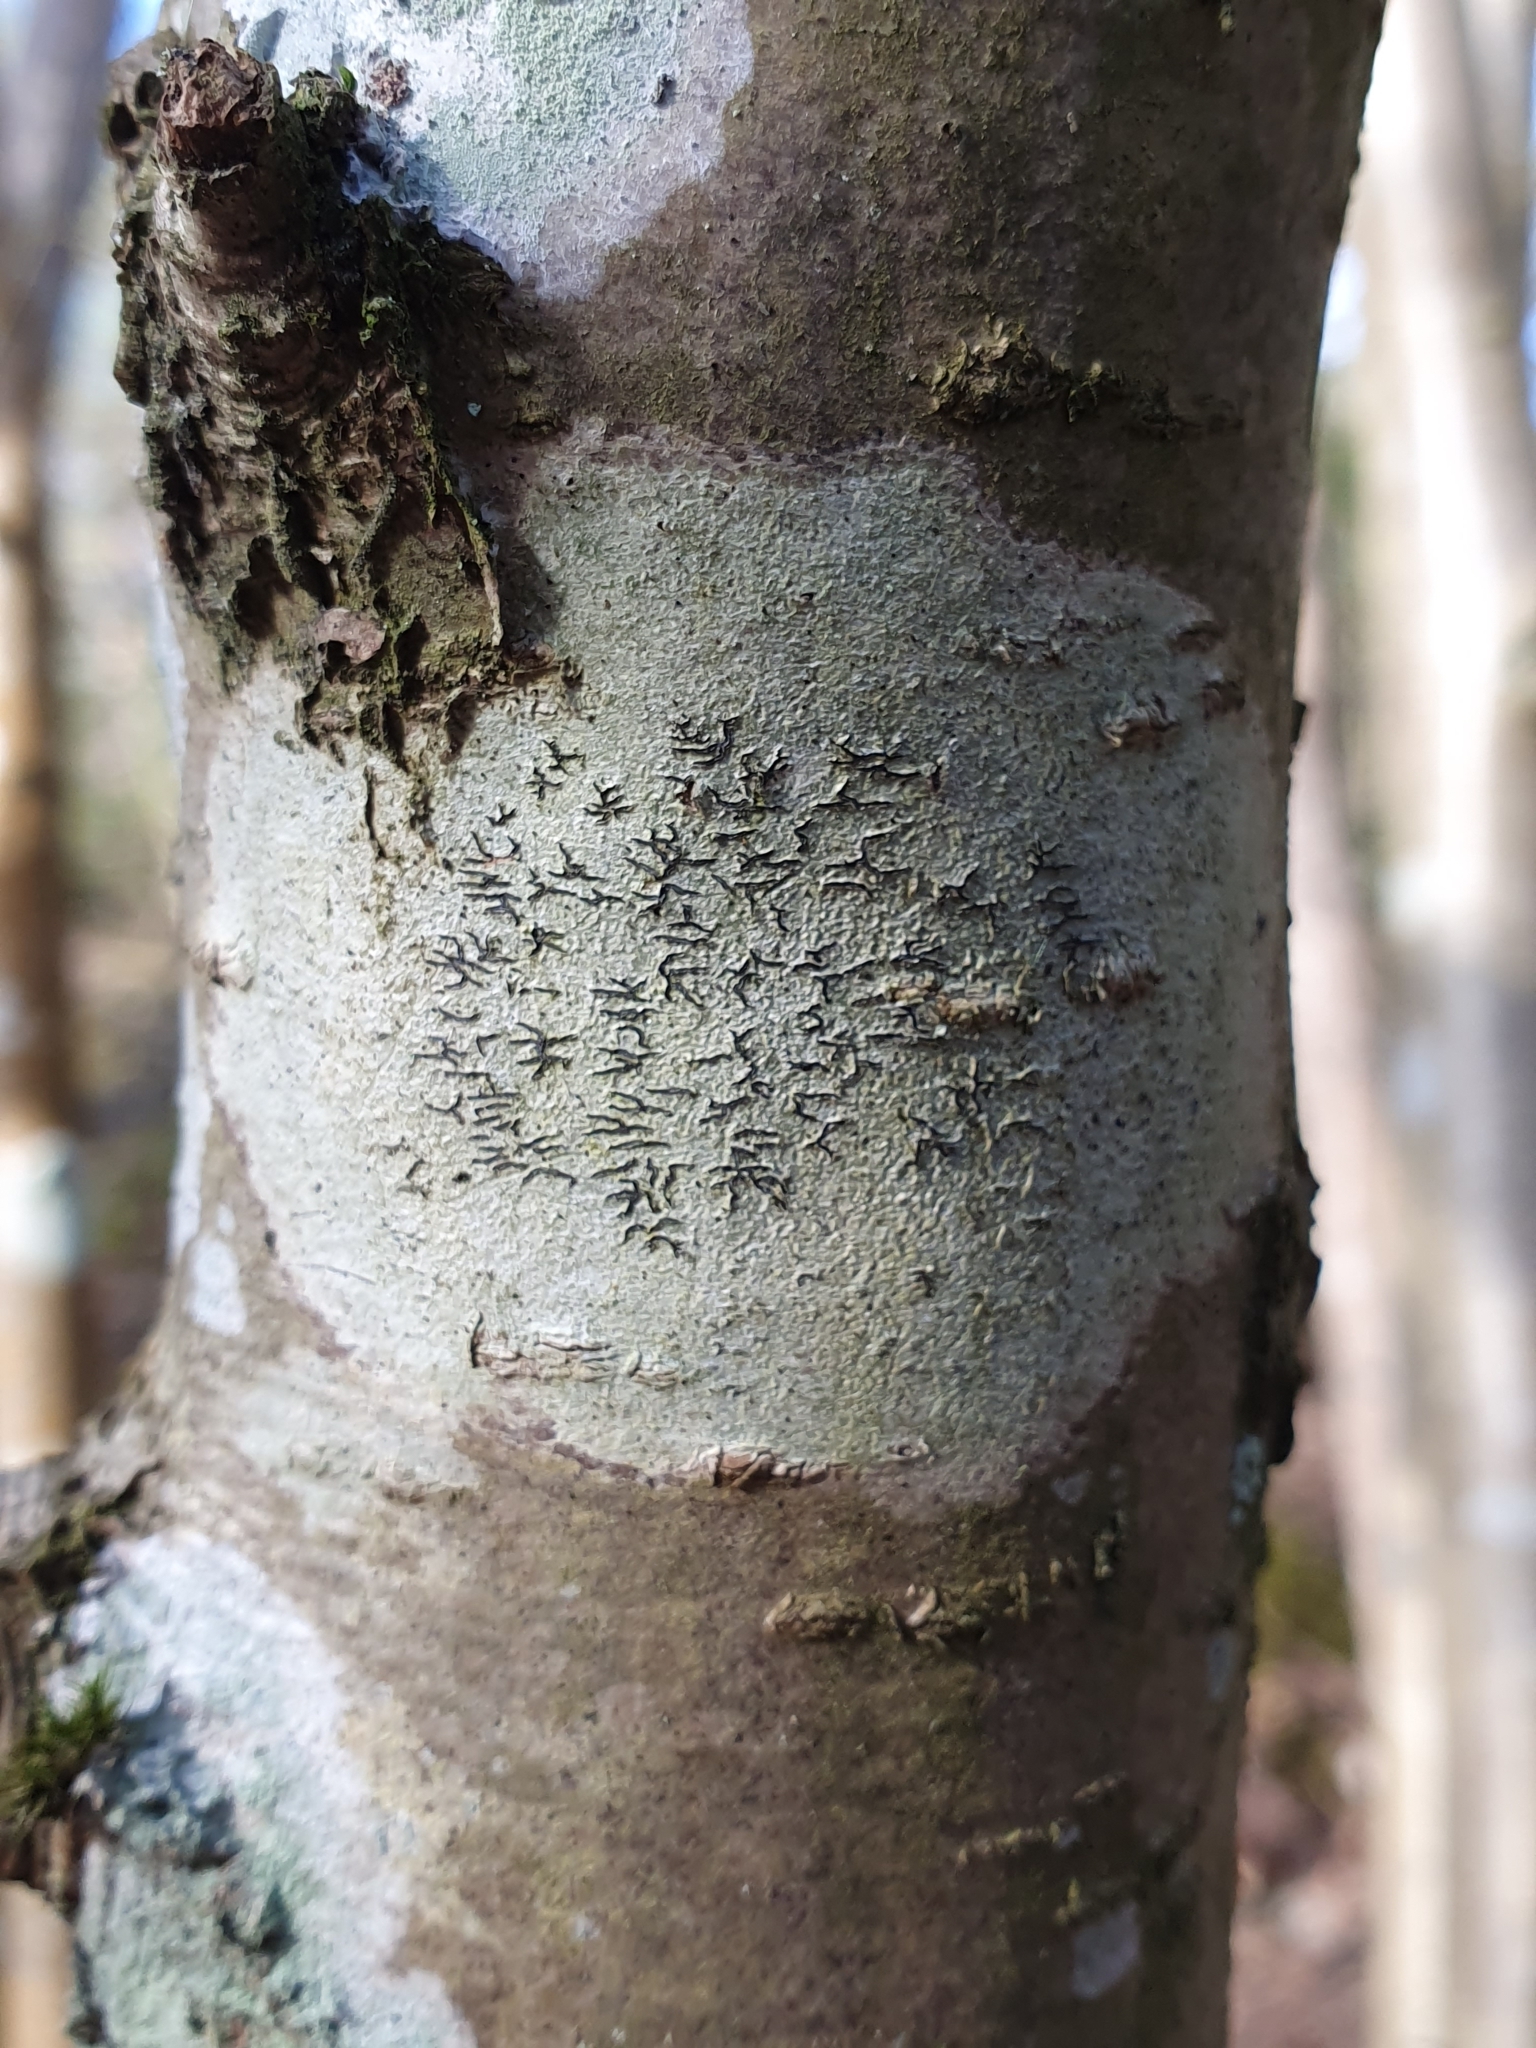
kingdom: Fungi
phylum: Ascomycota
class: Lecanoromycetes
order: Ostropales
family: Graphidaceae
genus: Graphis
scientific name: Graphis scripta
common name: Script lichen
